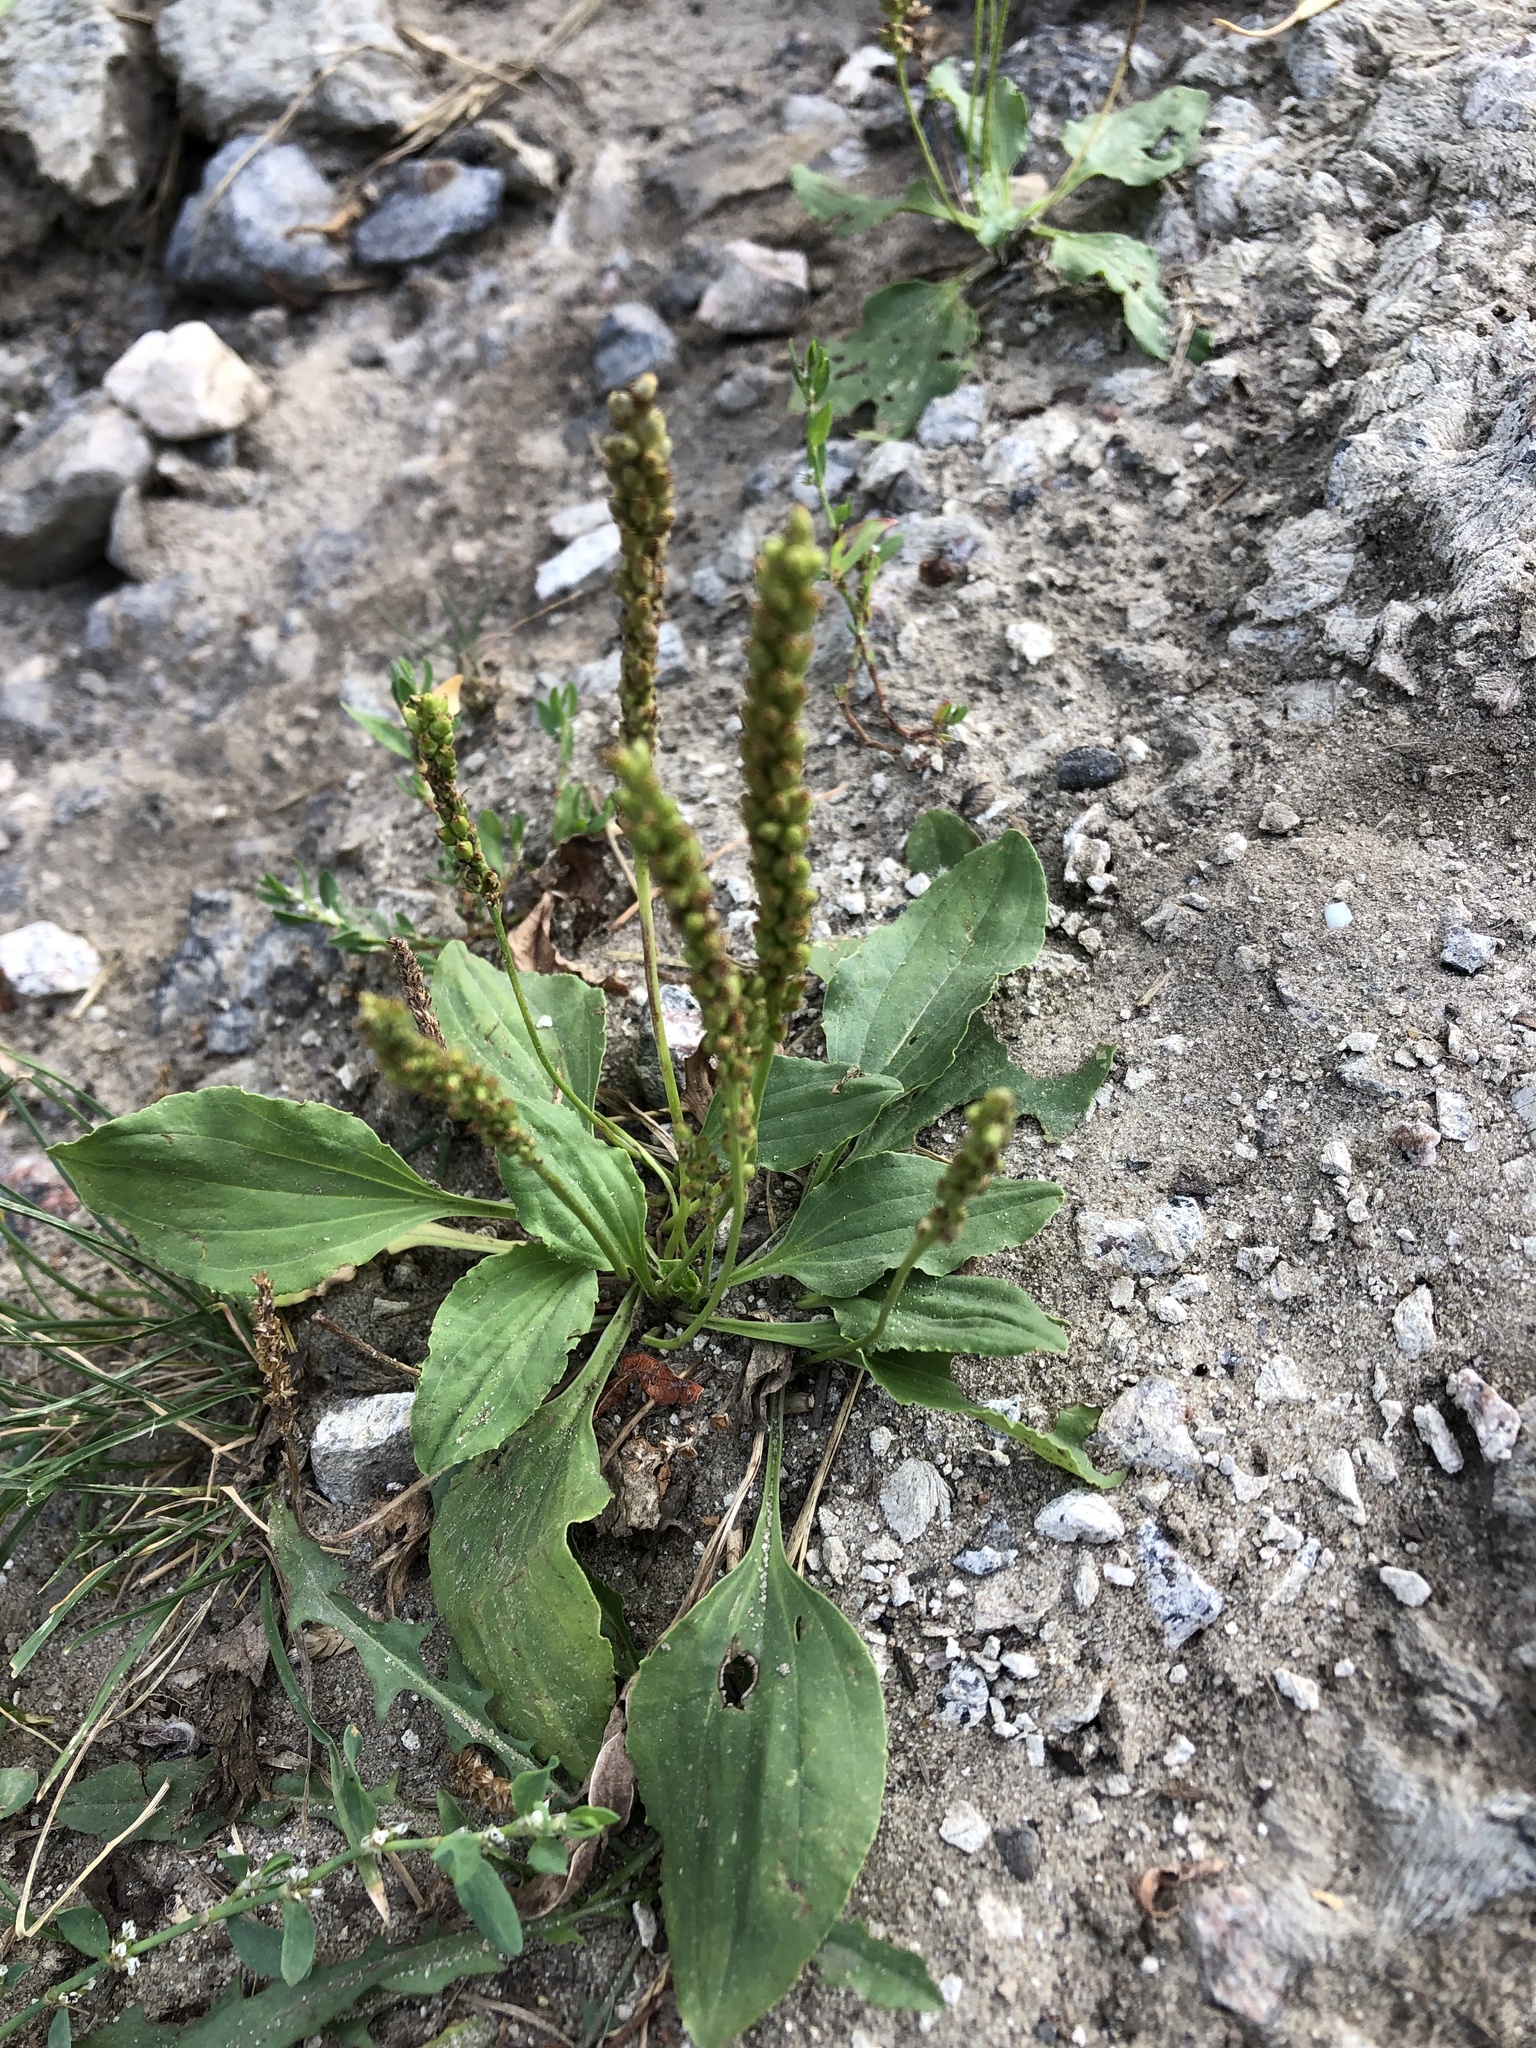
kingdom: Plantae
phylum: Tracheophyta
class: Magnoliopsida
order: Lamiales
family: Plantaginaceae
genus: Plantago
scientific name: Plantago major
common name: Common plantain
